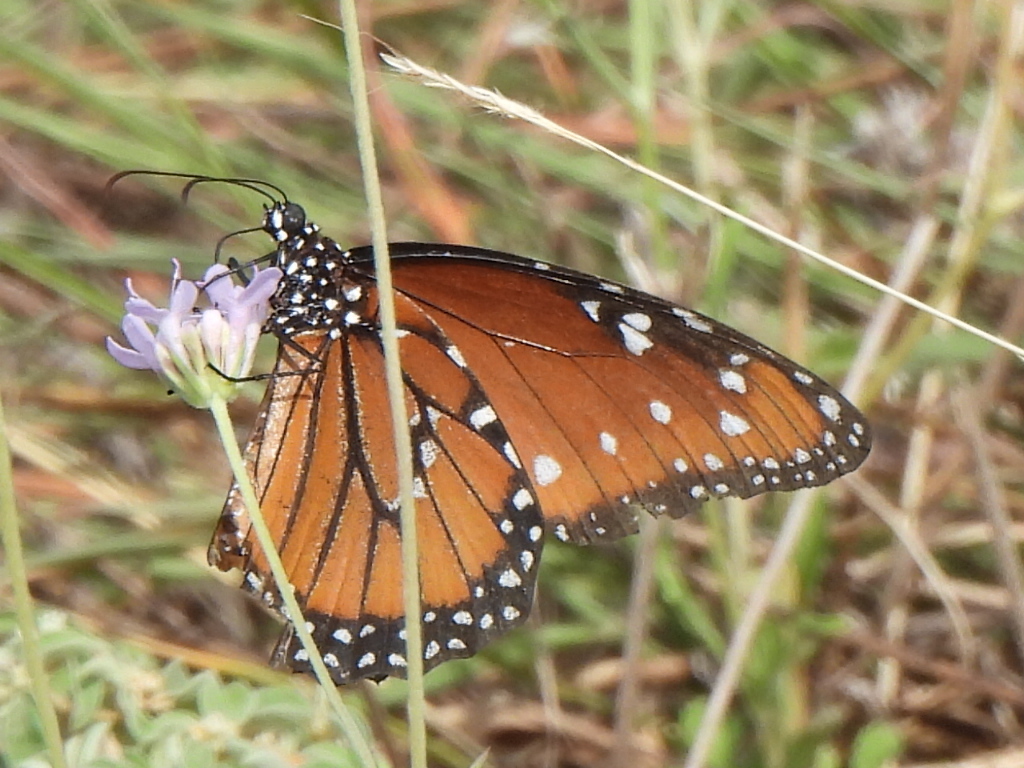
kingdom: Animalia
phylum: Arthropoda
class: Insecta
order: Lepidoptera
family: Nymphalidae
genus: Danaus
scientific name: Danaus gilippus
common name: Queen
